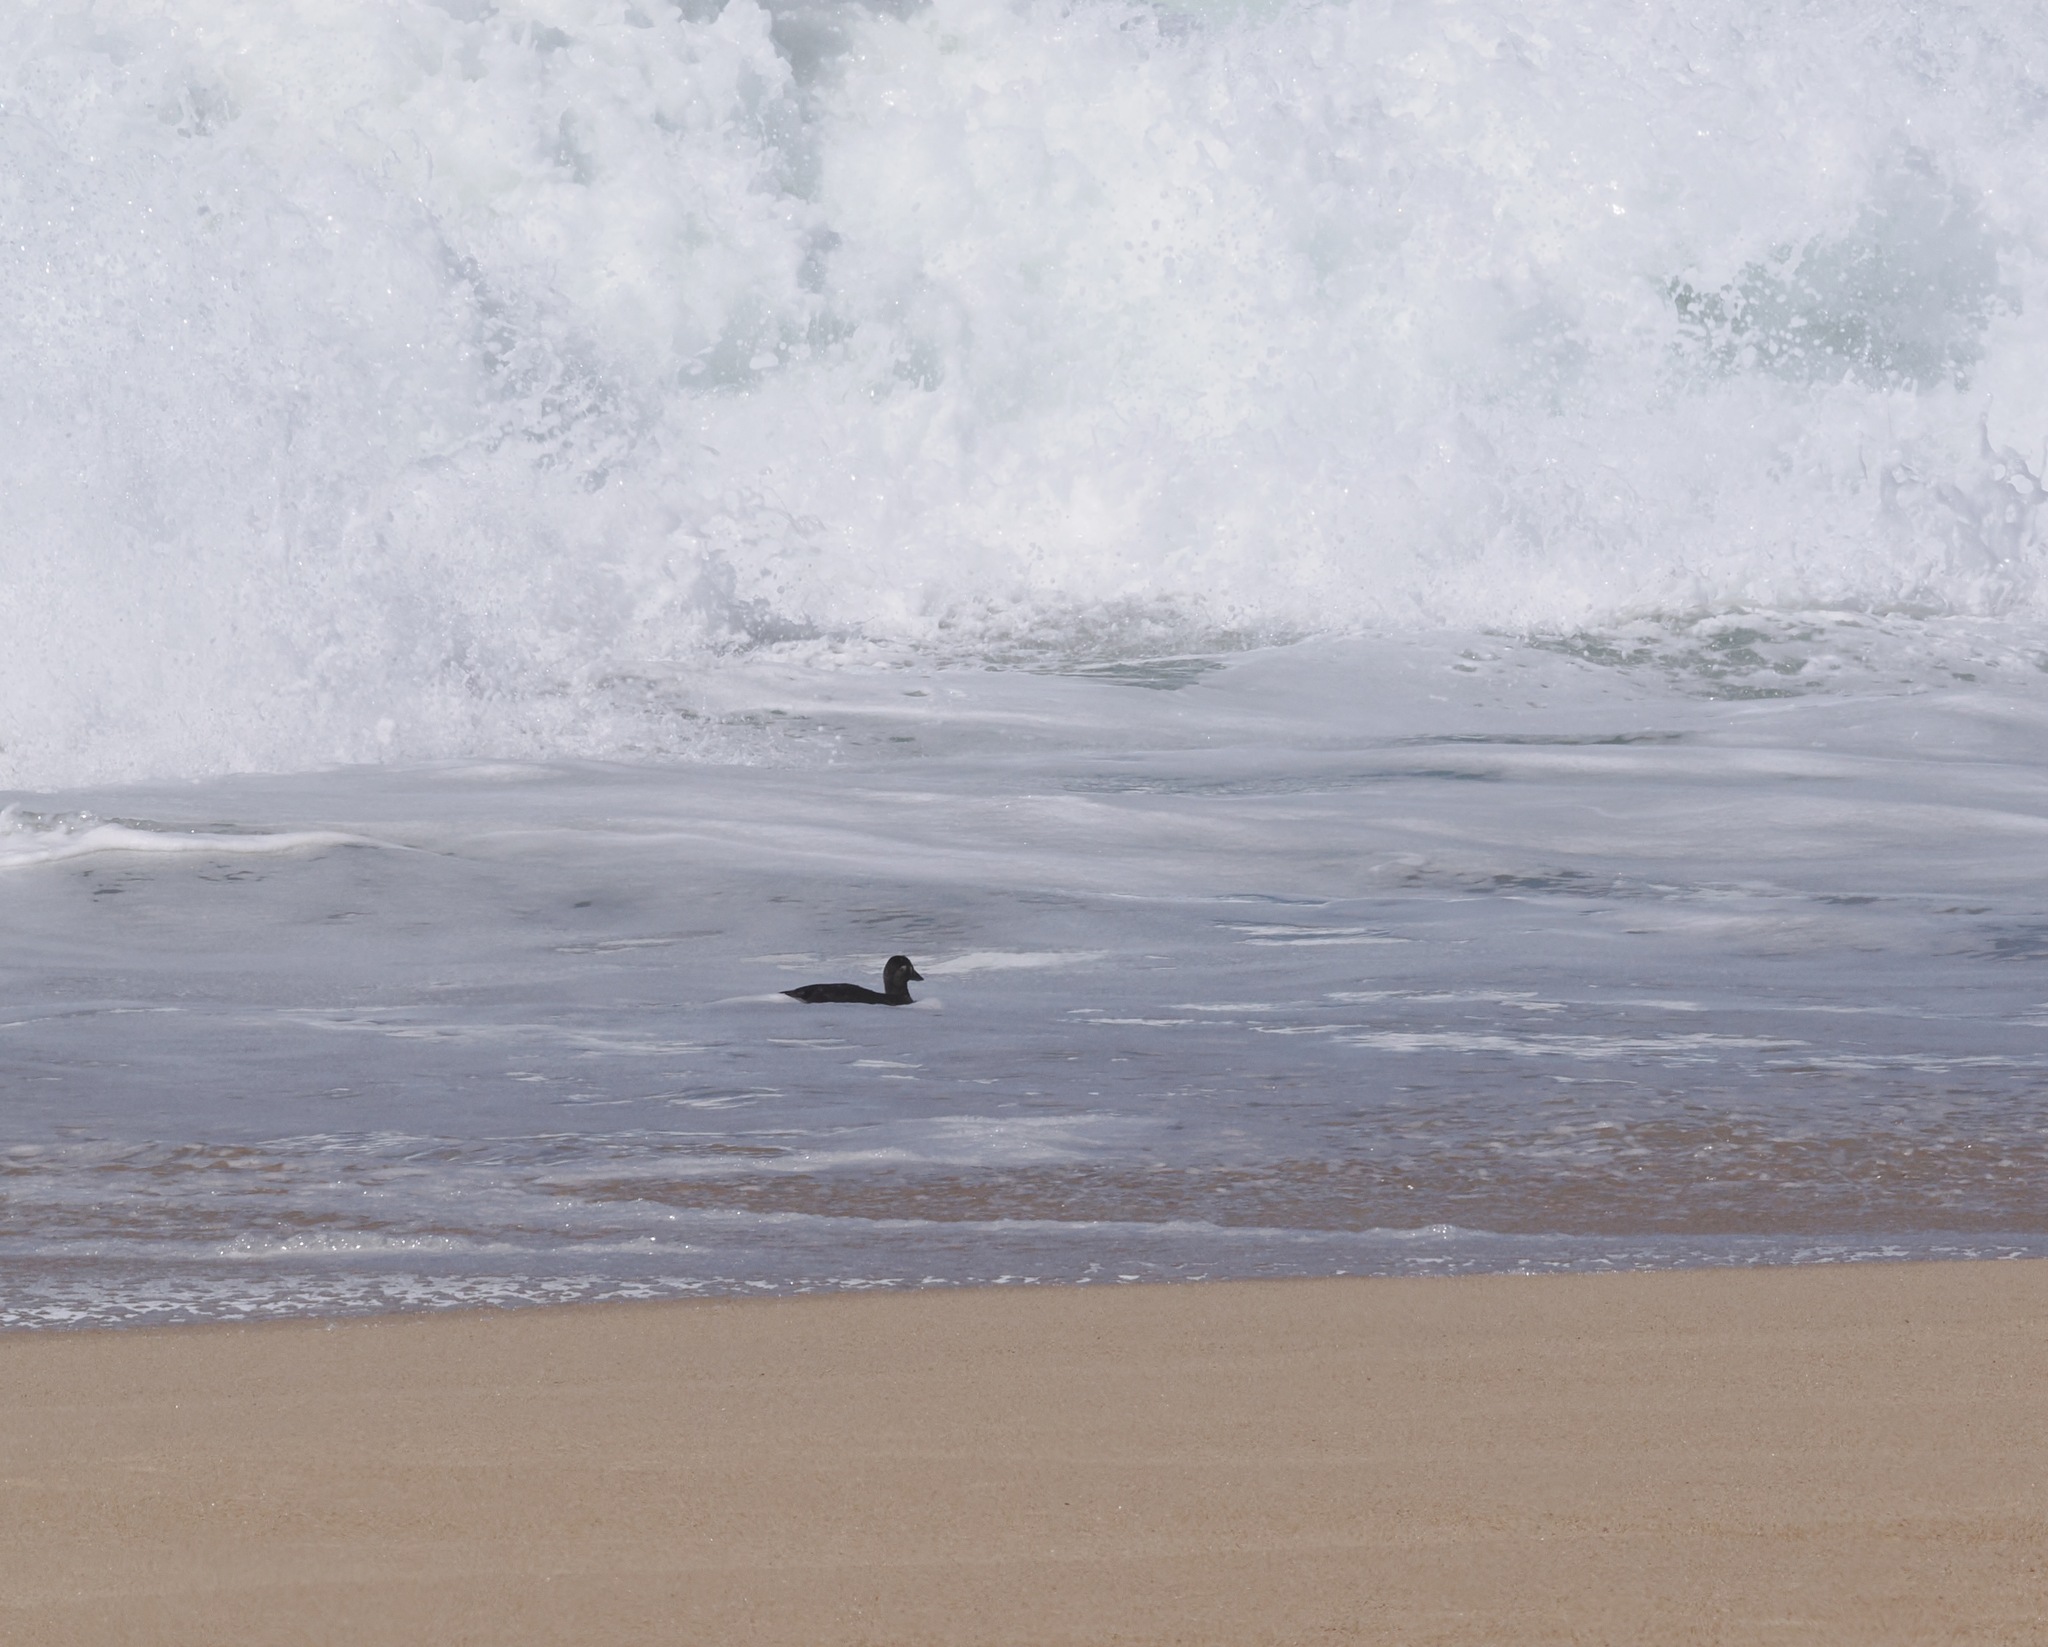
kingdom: Animalia
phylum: Chordata
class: Aves
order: Anseriformes
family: Anatidae
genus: Melanitta
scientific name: Melanitta perspicillata
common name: Surf scoter
